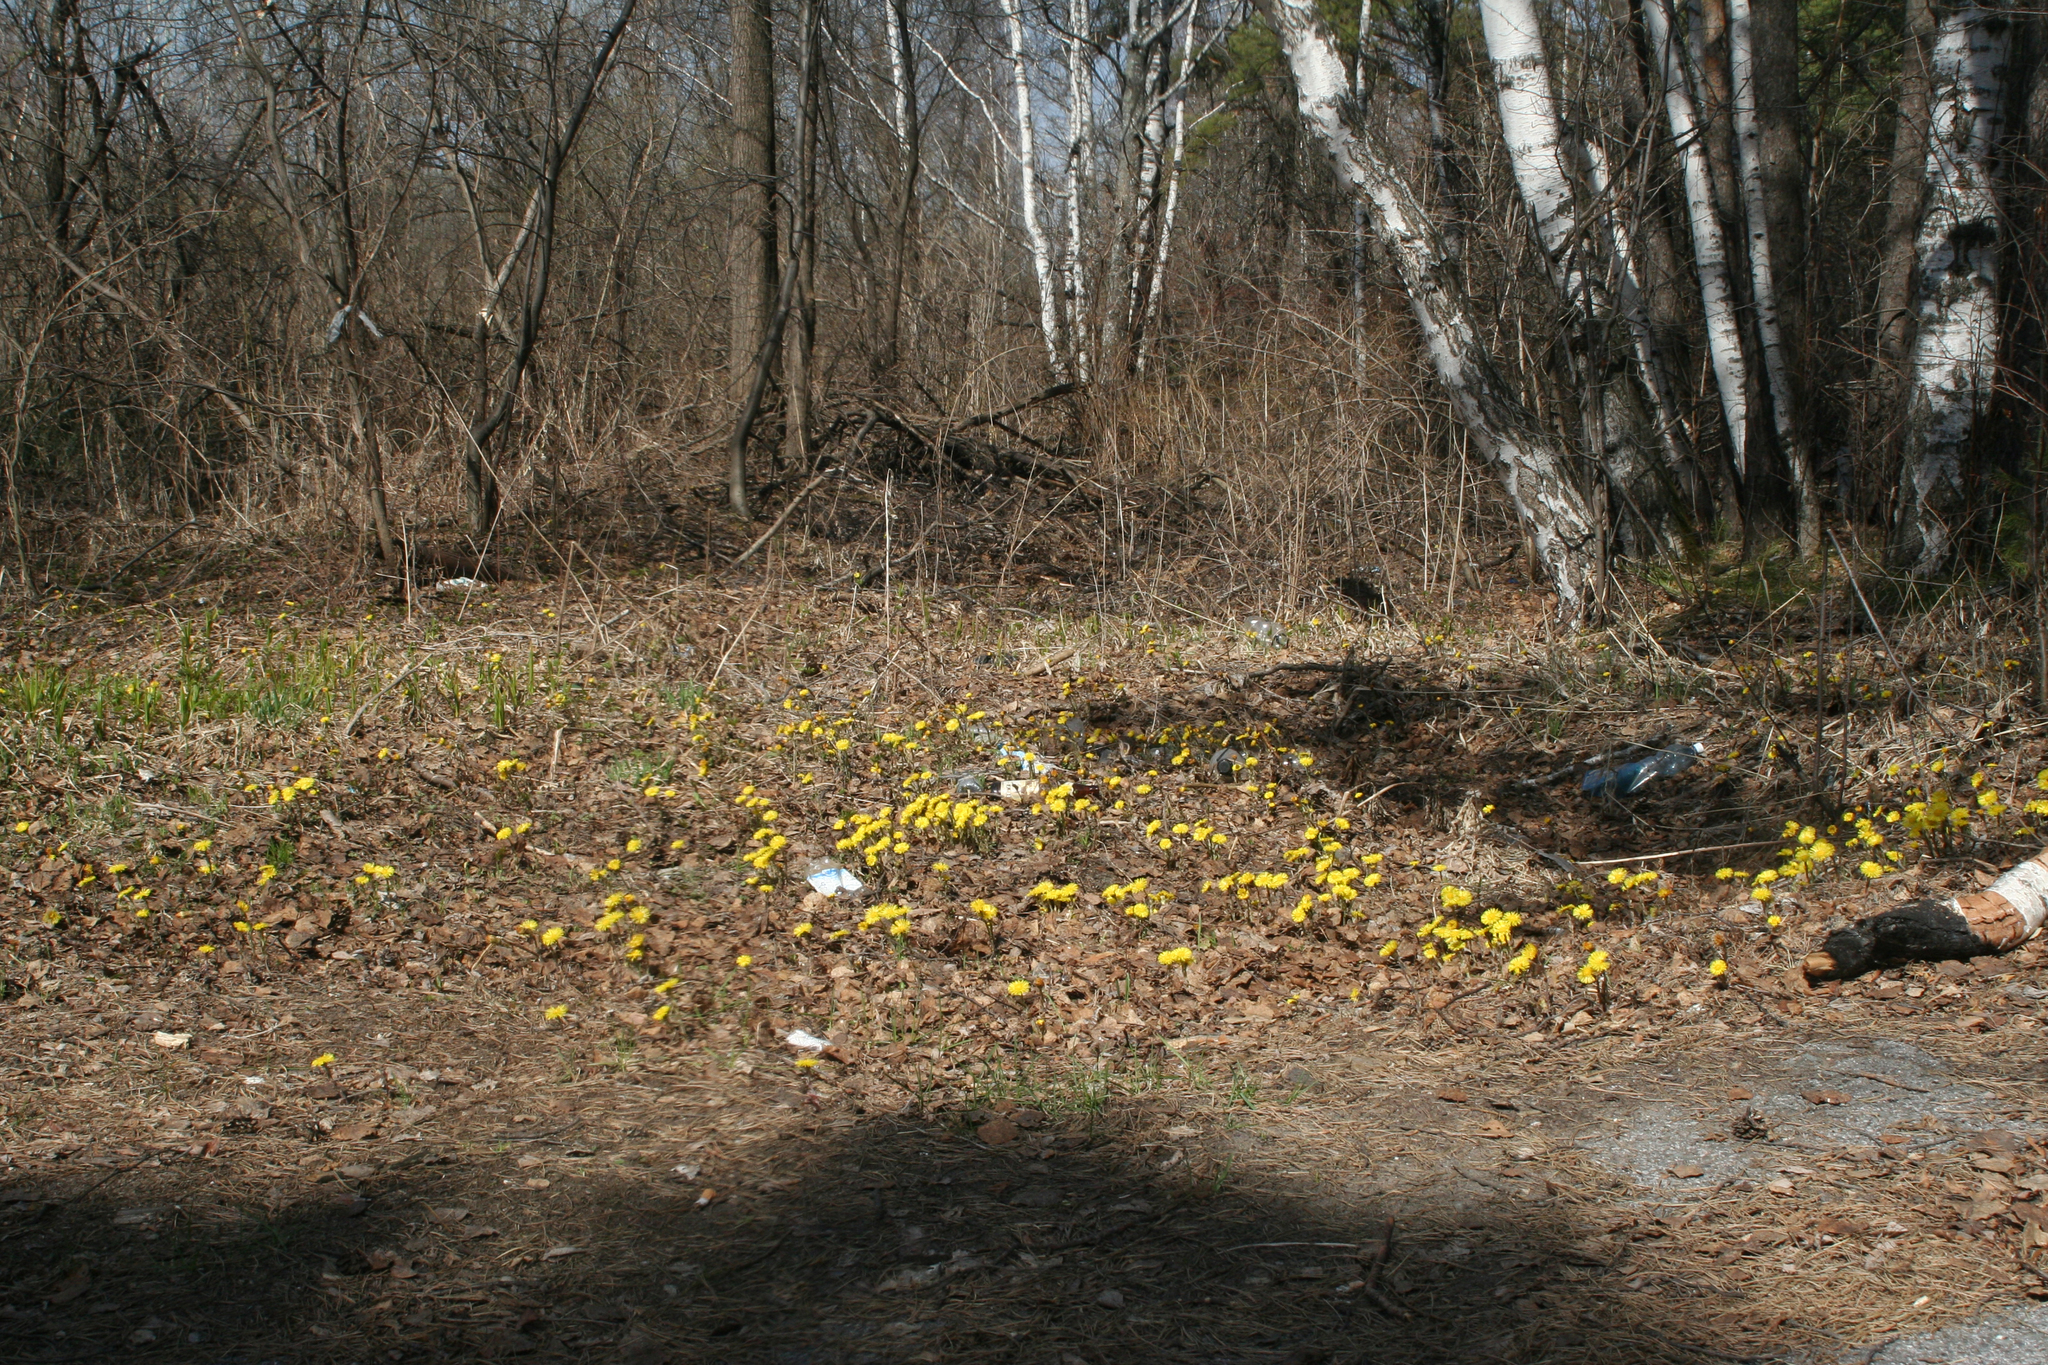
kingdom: Plantae
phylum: Tracheophyta
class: Magnoliopsida
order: Asterales
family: Asteraceae
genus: Tussilago
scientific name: Tussilago farfara
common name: Coltsfoot
